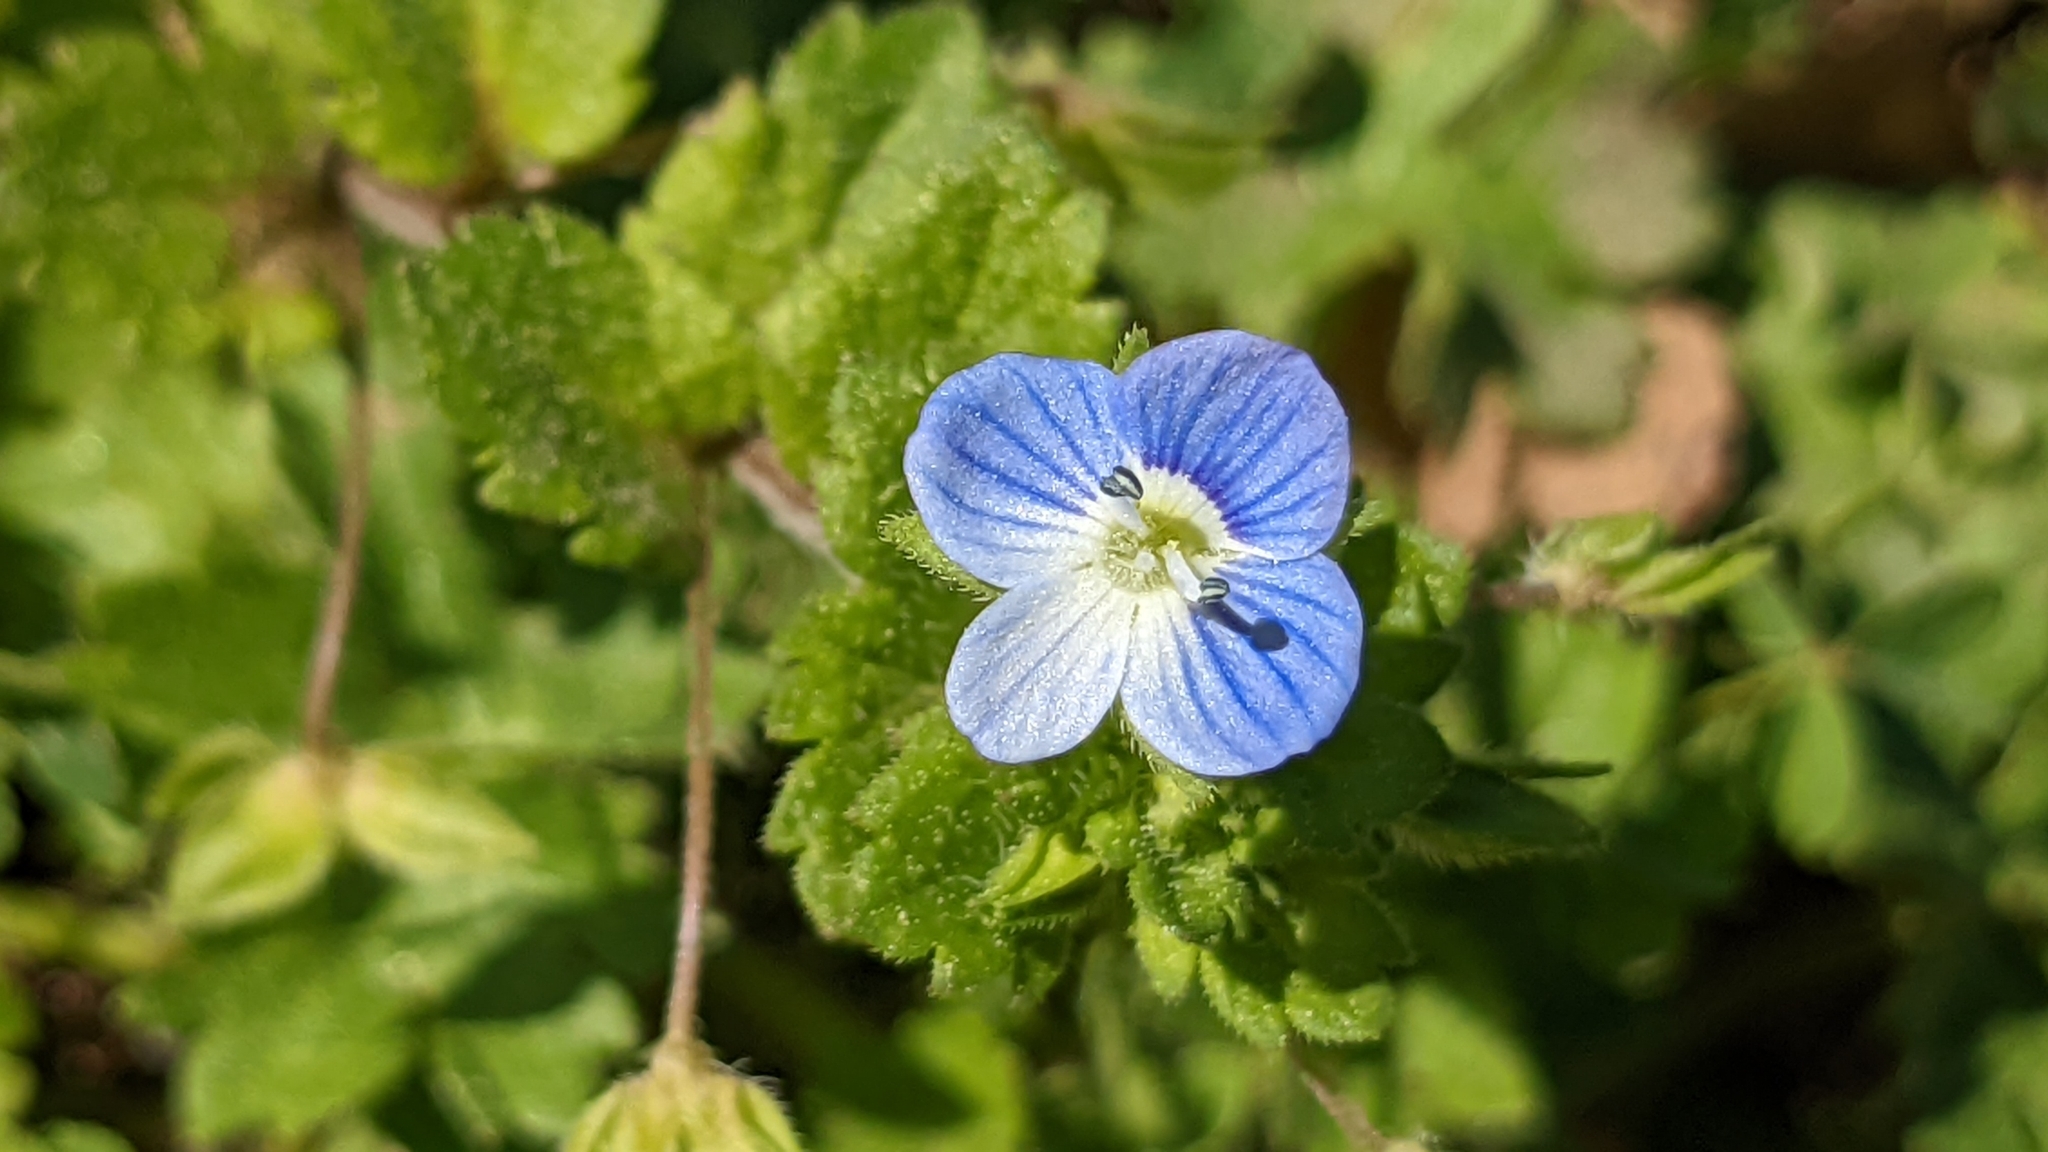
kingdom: Plantae
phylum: Tracheophyta
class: Magnoliopsida
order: Lamiales
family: Plantaginaceae
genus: Veronica
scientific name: Veronica persica
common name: Common field-speedwell
